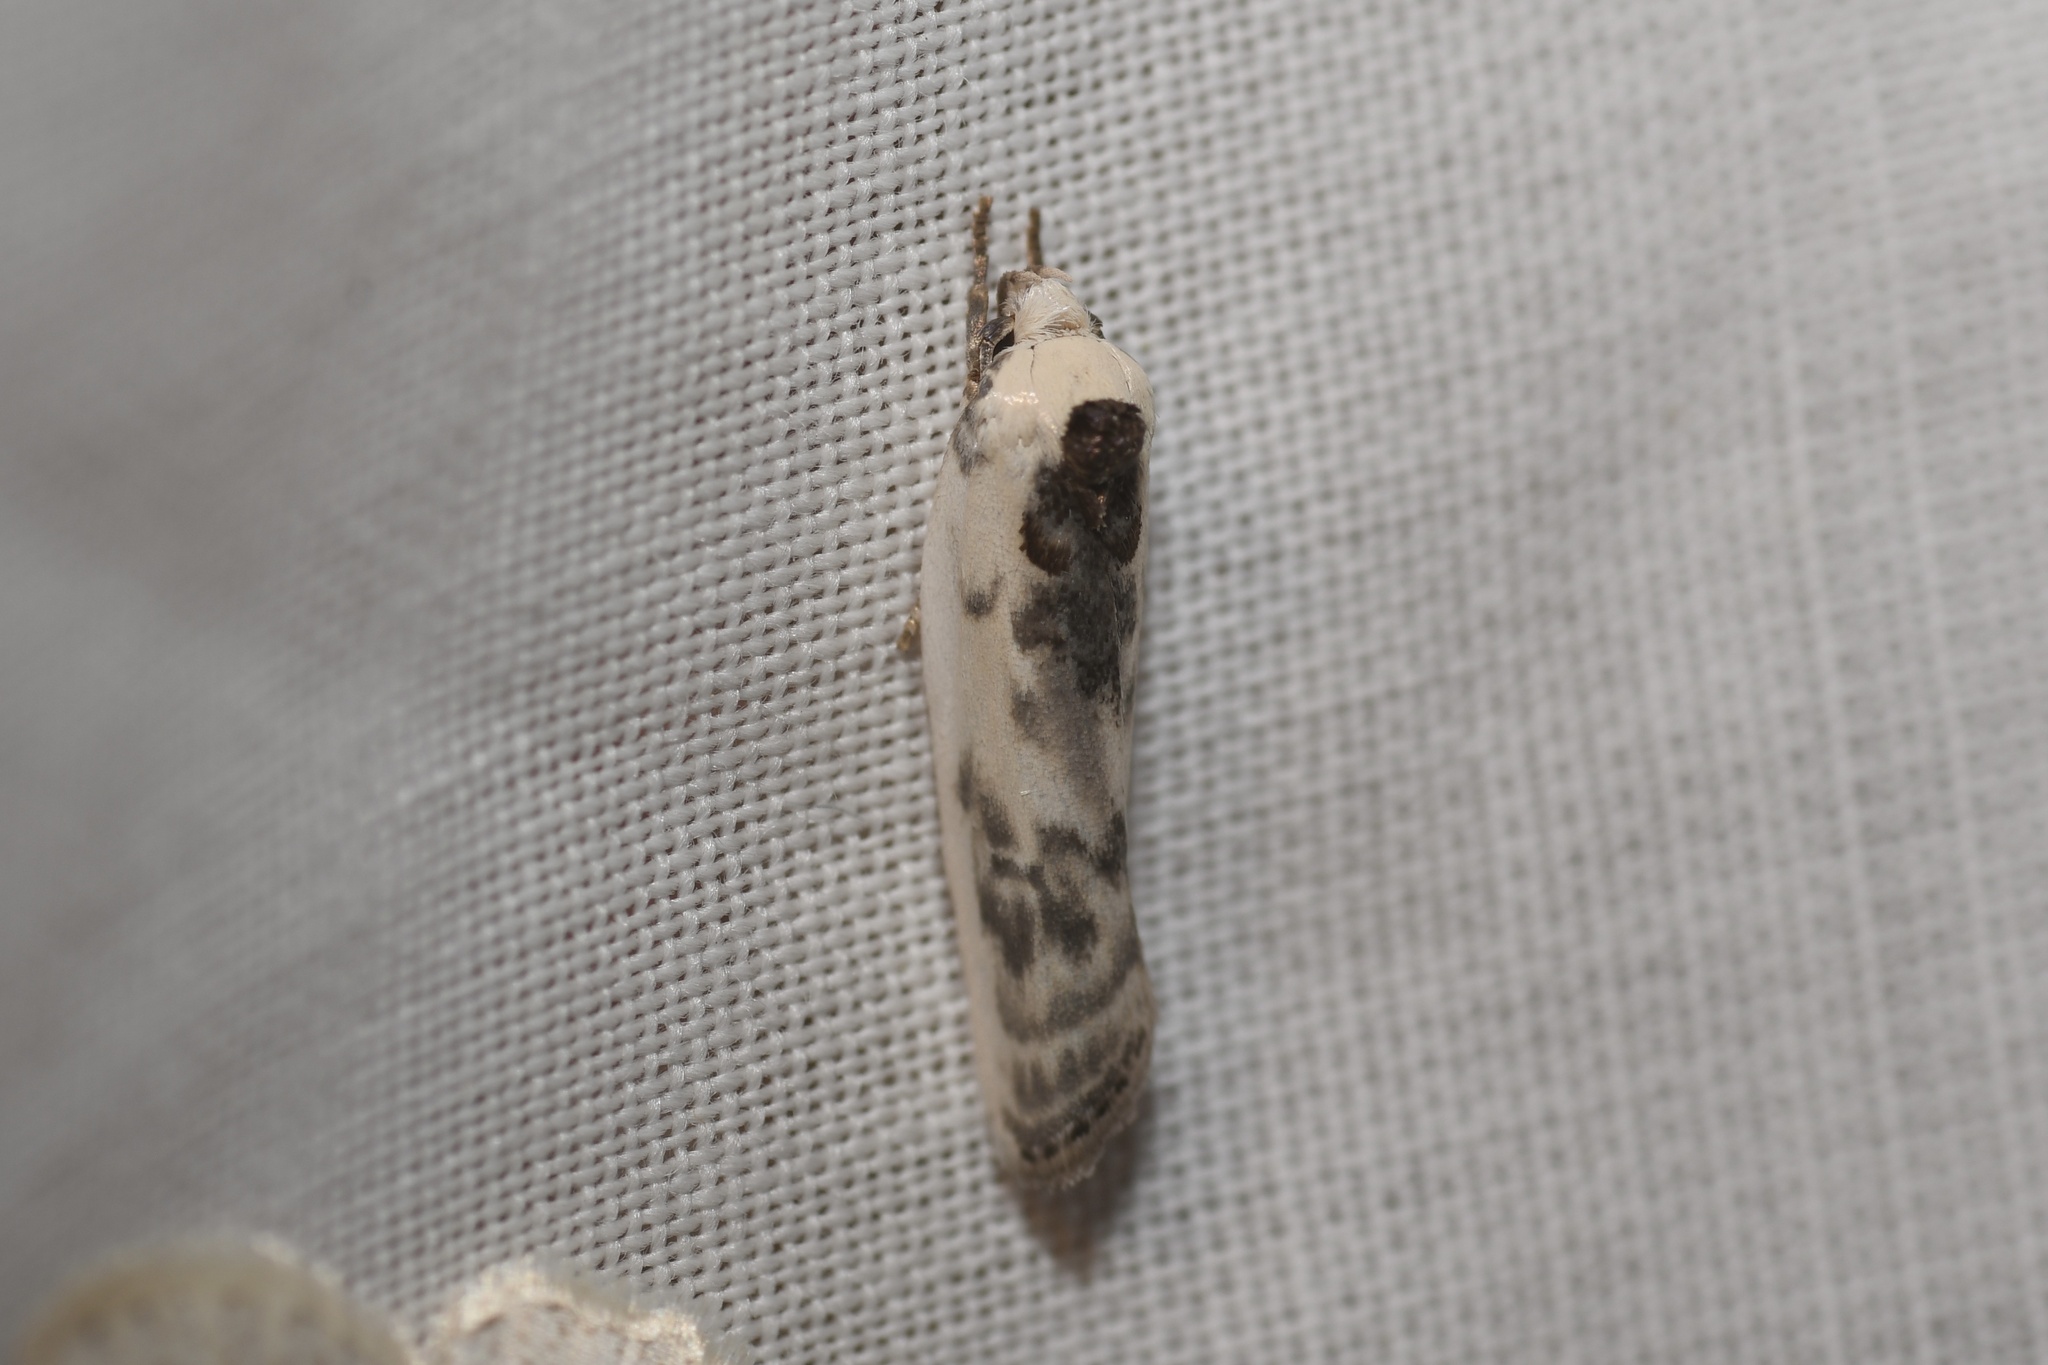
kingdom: Animalia
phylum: Arthropoda
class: Insecta
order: Lepidoptera
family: Depressariidae
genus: Antaeotricha
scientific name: Antaeotricha schlaegeri
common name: Schlaeger's fruitworm moth
